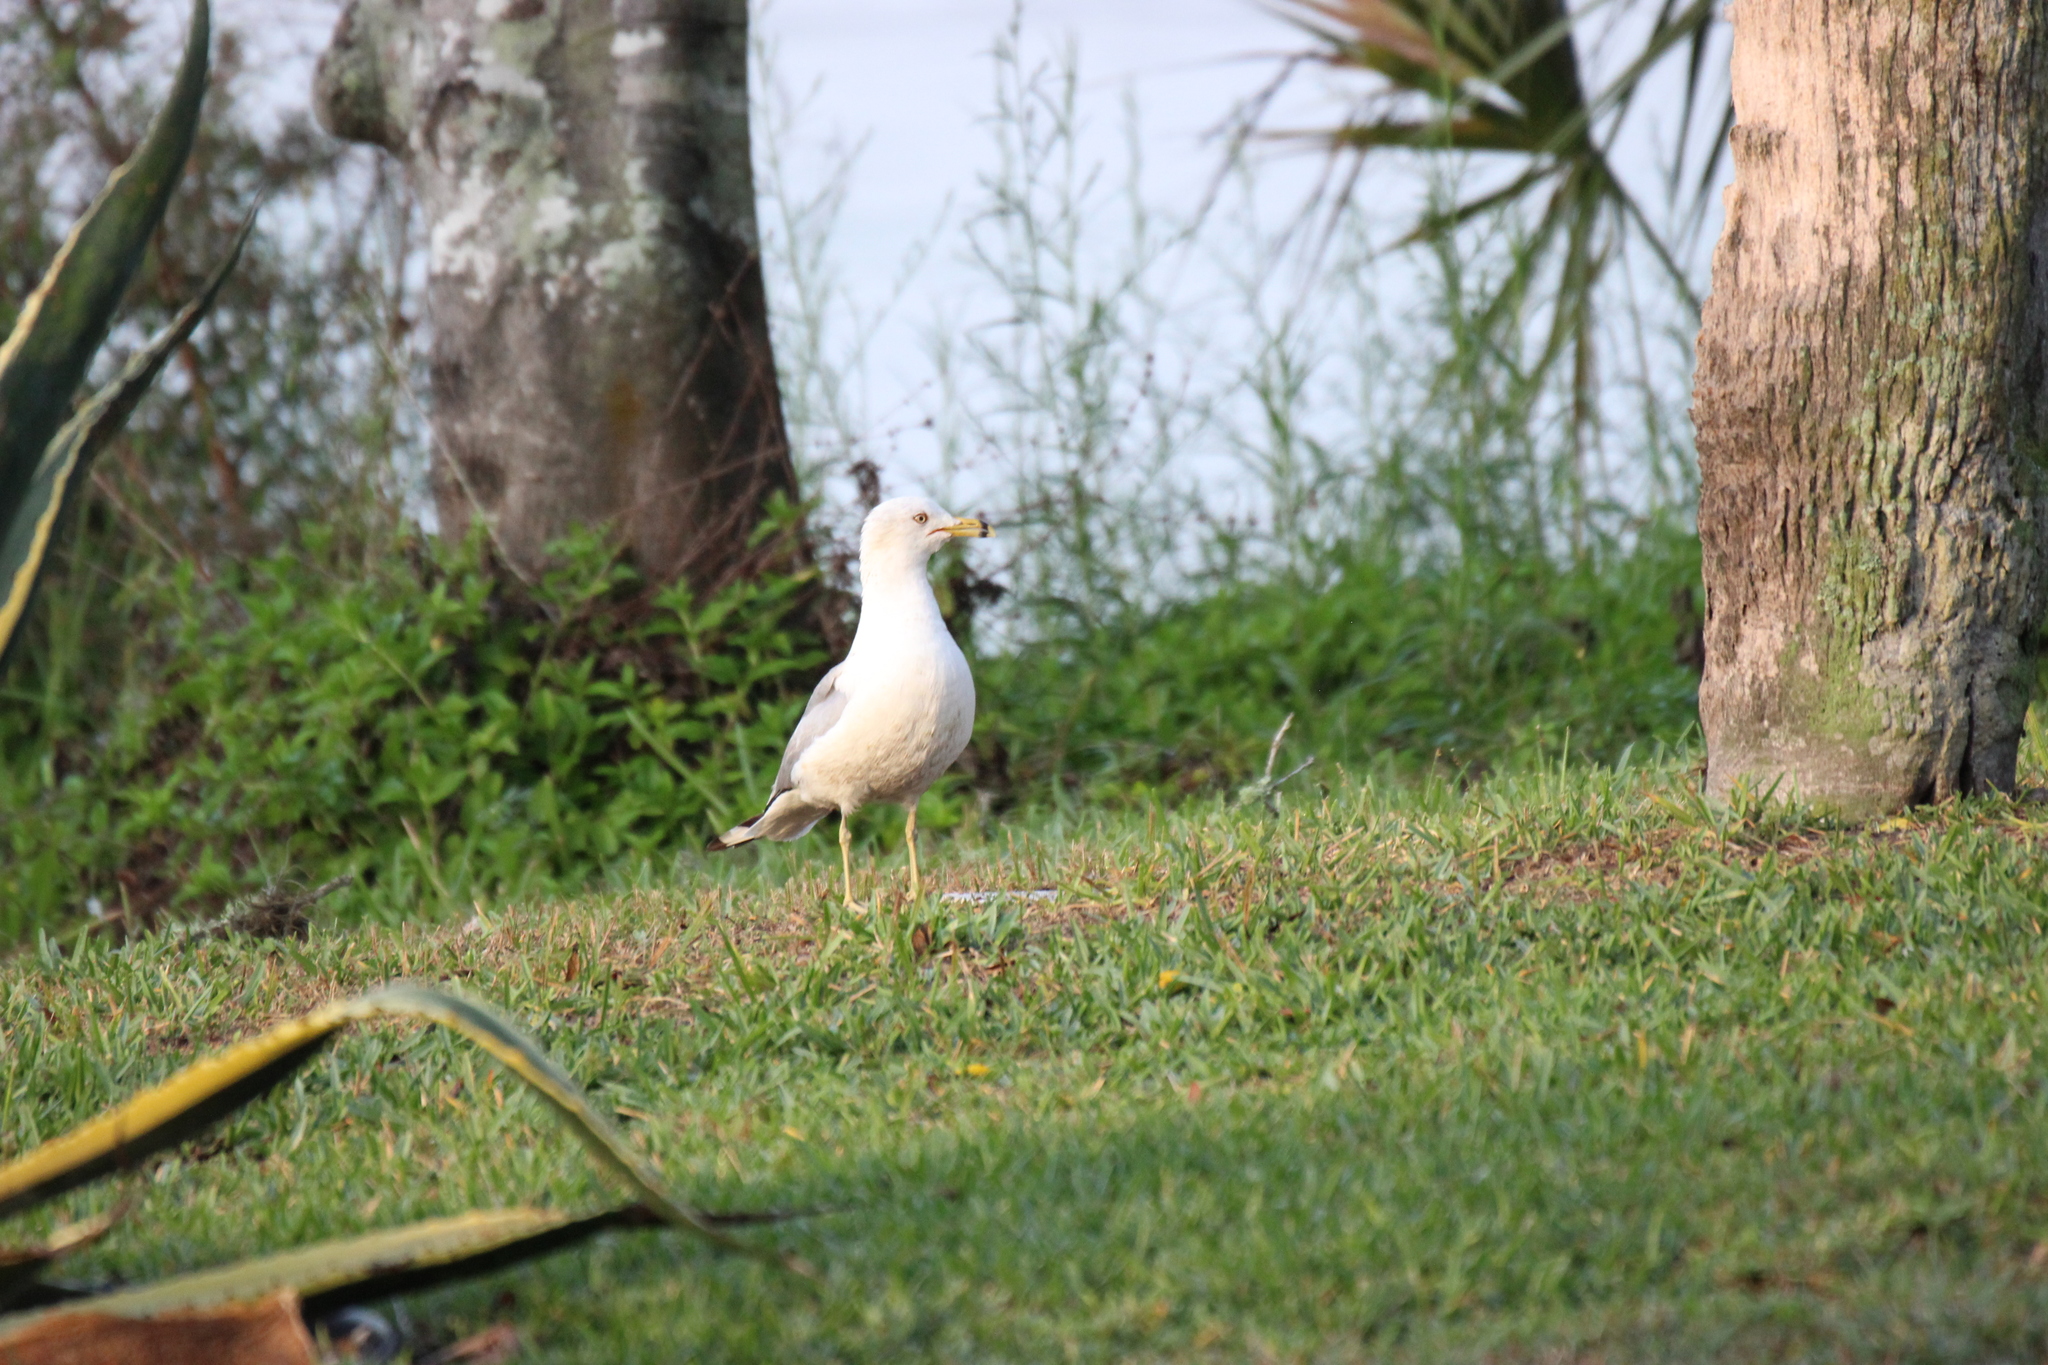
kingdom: Animalia
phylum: Chordata
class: Aves
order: Charadriiformes
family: Laridae
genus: Larus
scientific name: Larus delawarensis
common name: Ring-billed gull
